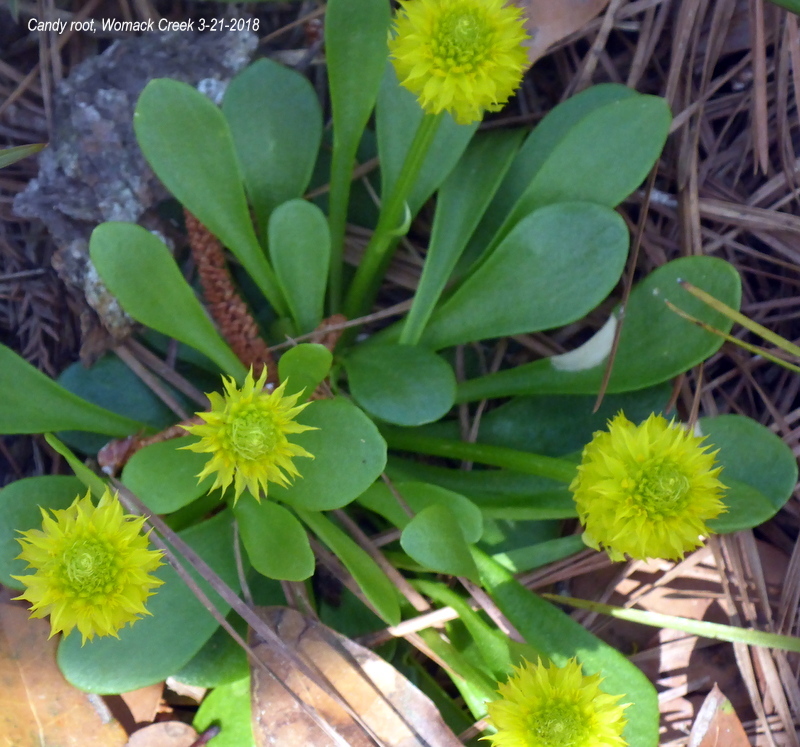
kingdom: Plantae
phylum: Tracheophyta
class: Magnoliopsida
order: Fabales
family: Polygalaceae
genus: Polygala
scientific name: Polygala nana
